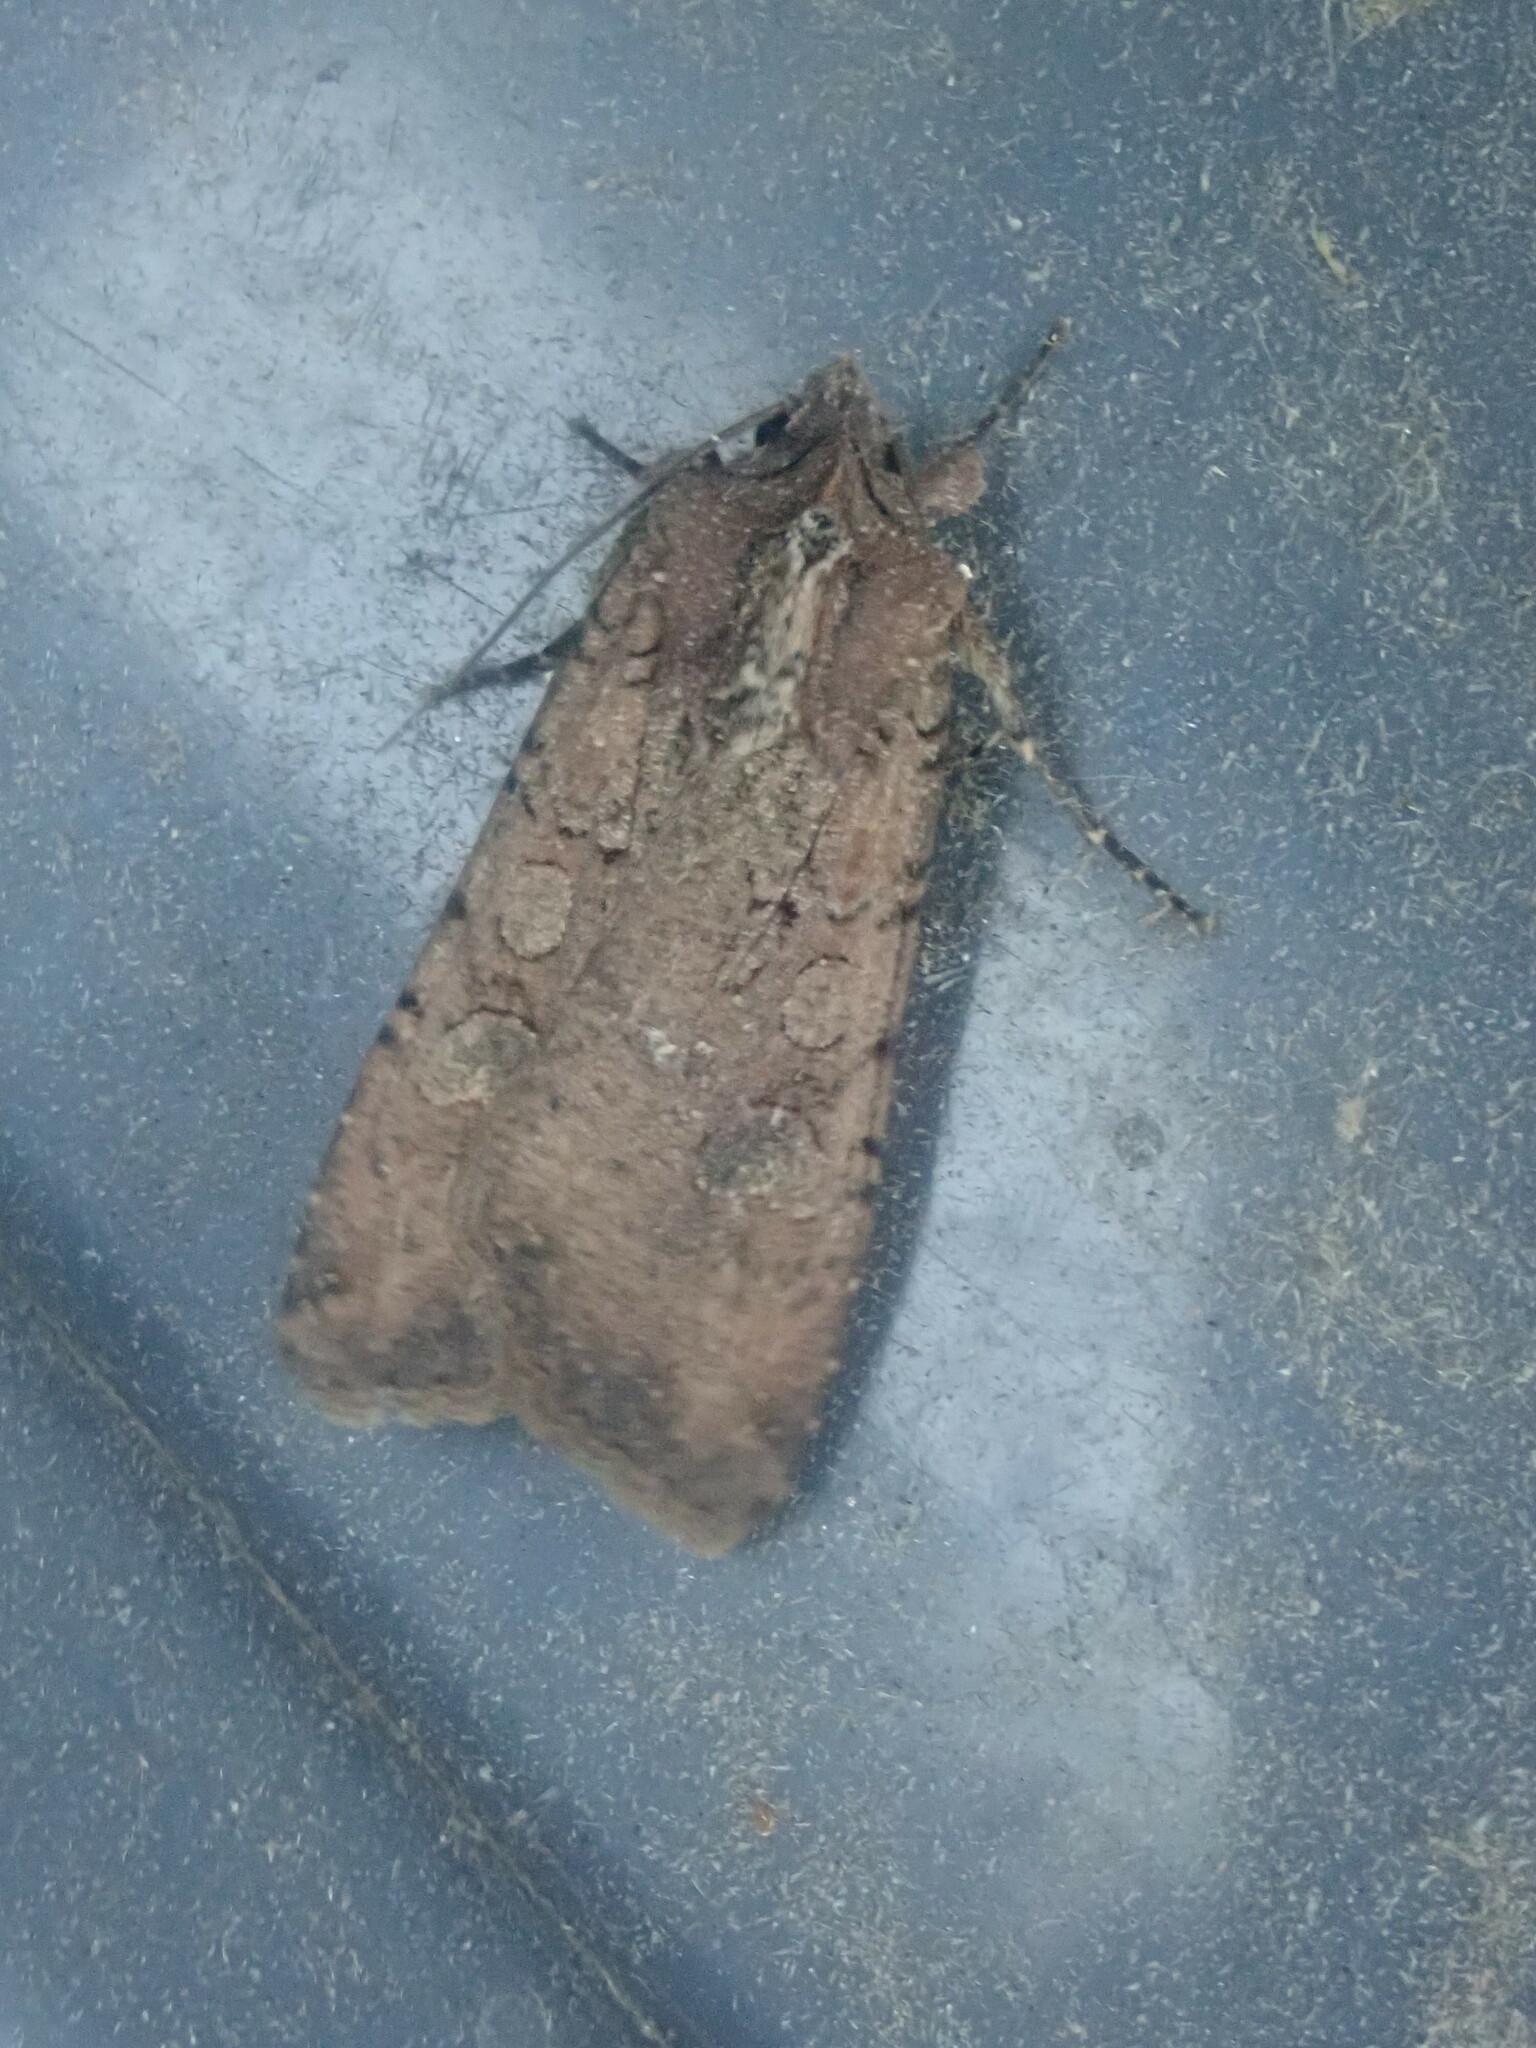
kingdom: Animalia
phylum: Arthropoda
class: Insecta
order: Lepidoptera
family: Noctuidae
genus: Peridroma
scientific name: Peridroma saucia
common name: Pearly underwing
